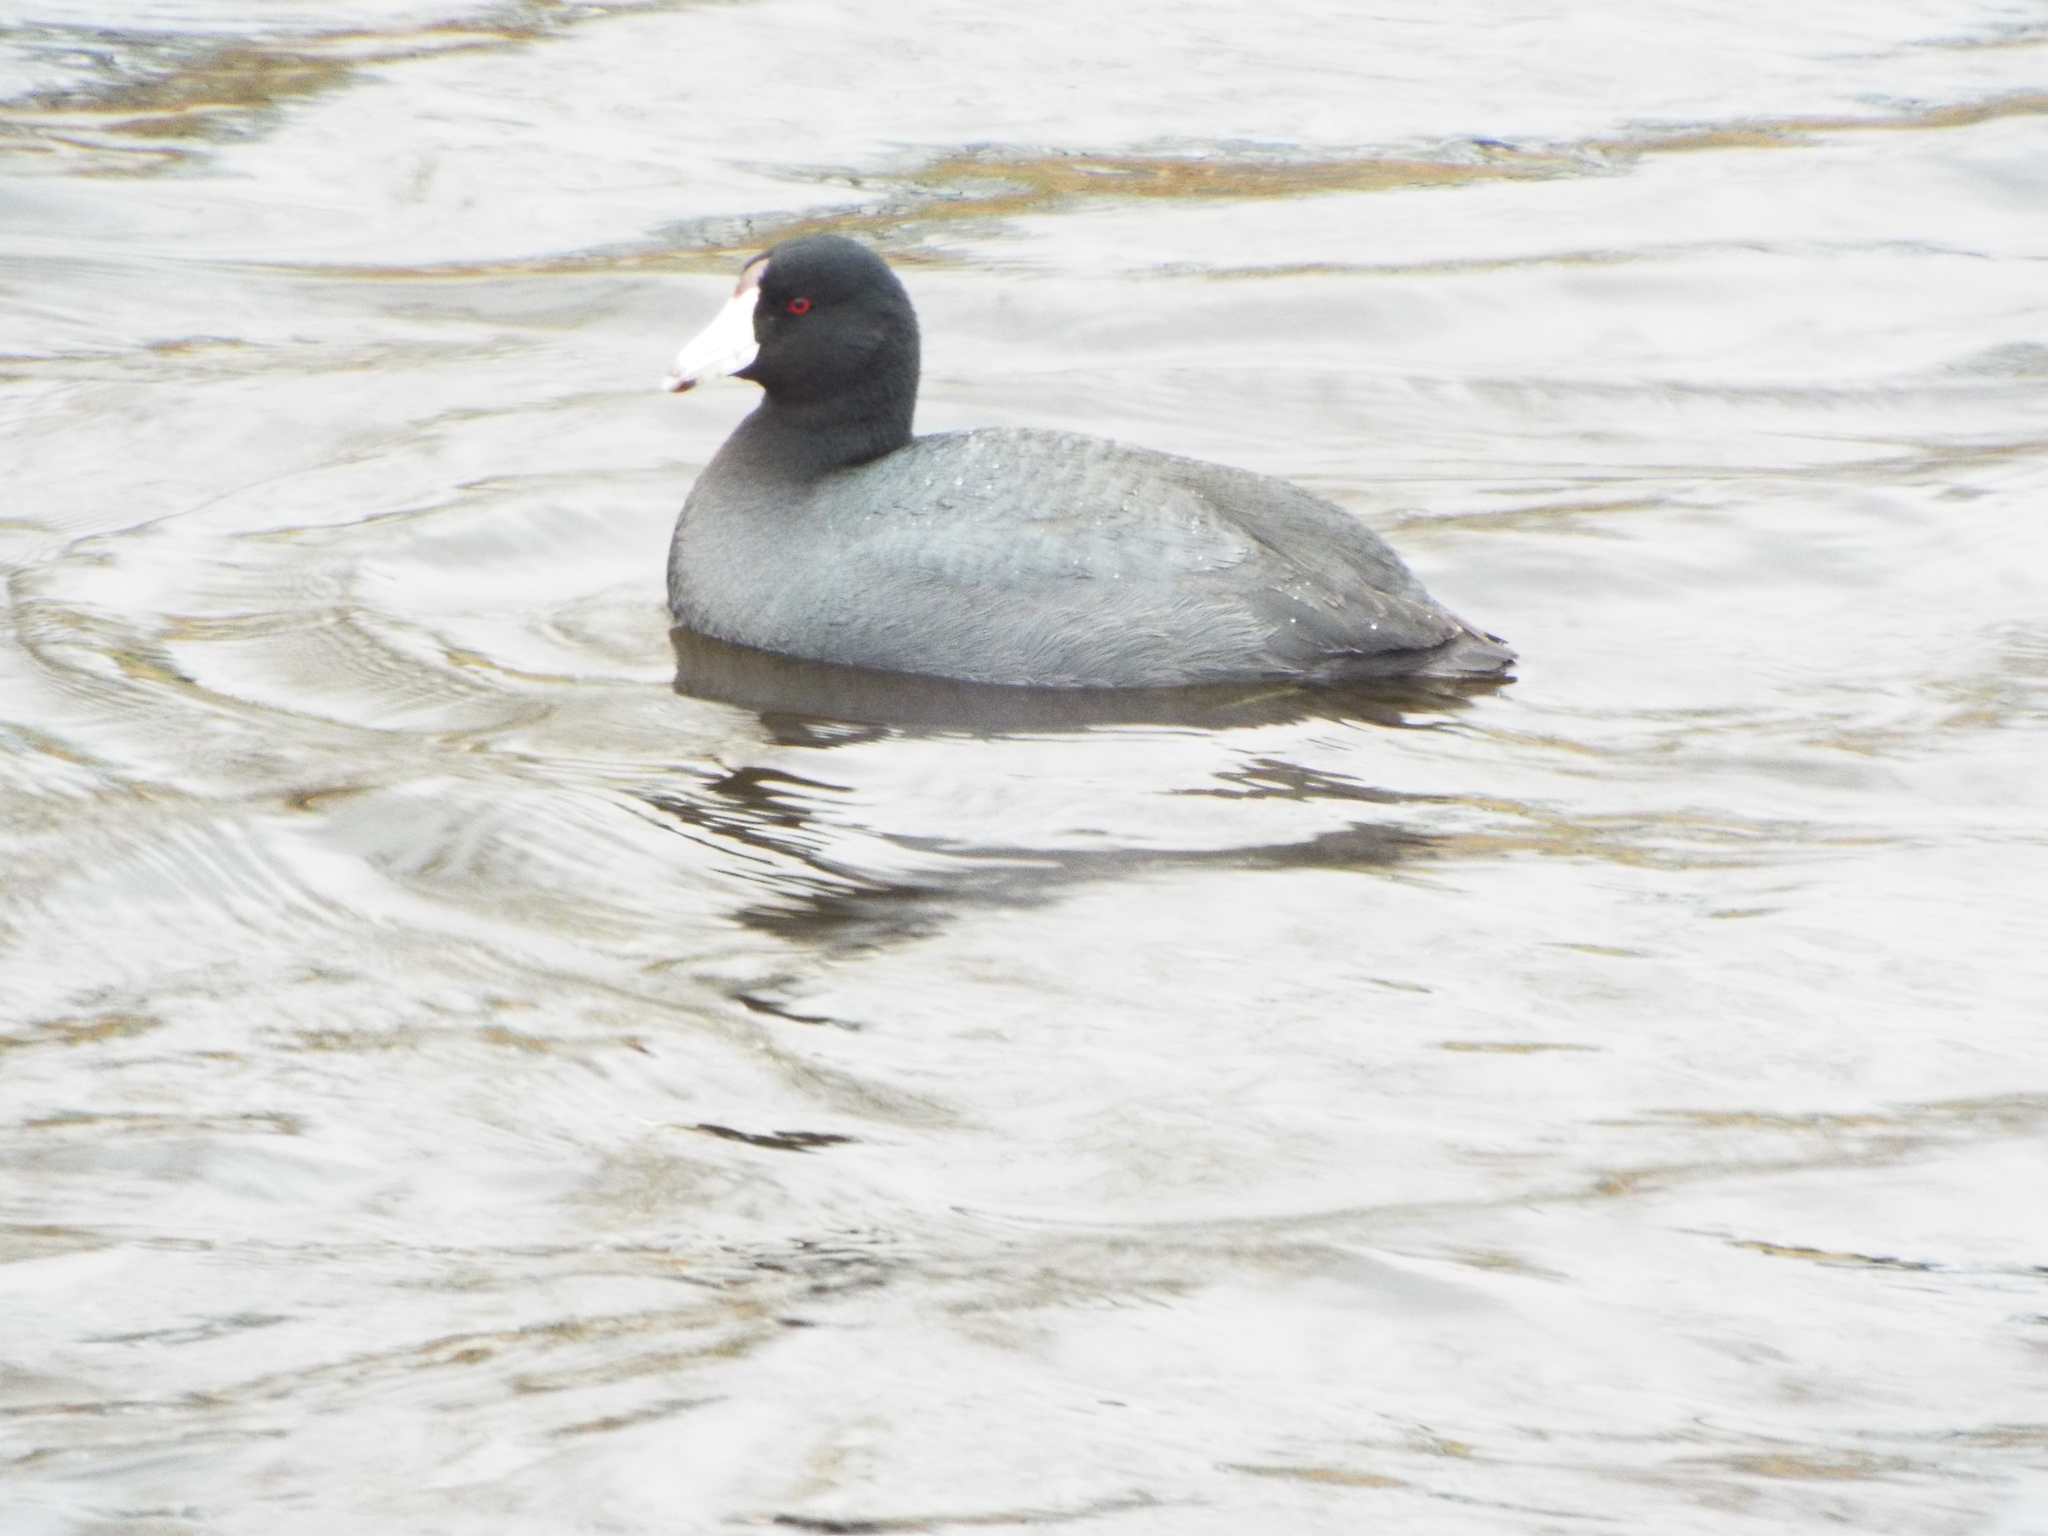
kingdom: Animalia
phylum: Chordata
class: Aves
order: Gruiformes
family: Rallidae
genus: Fulica
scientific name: Fulica americana
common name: American coot
